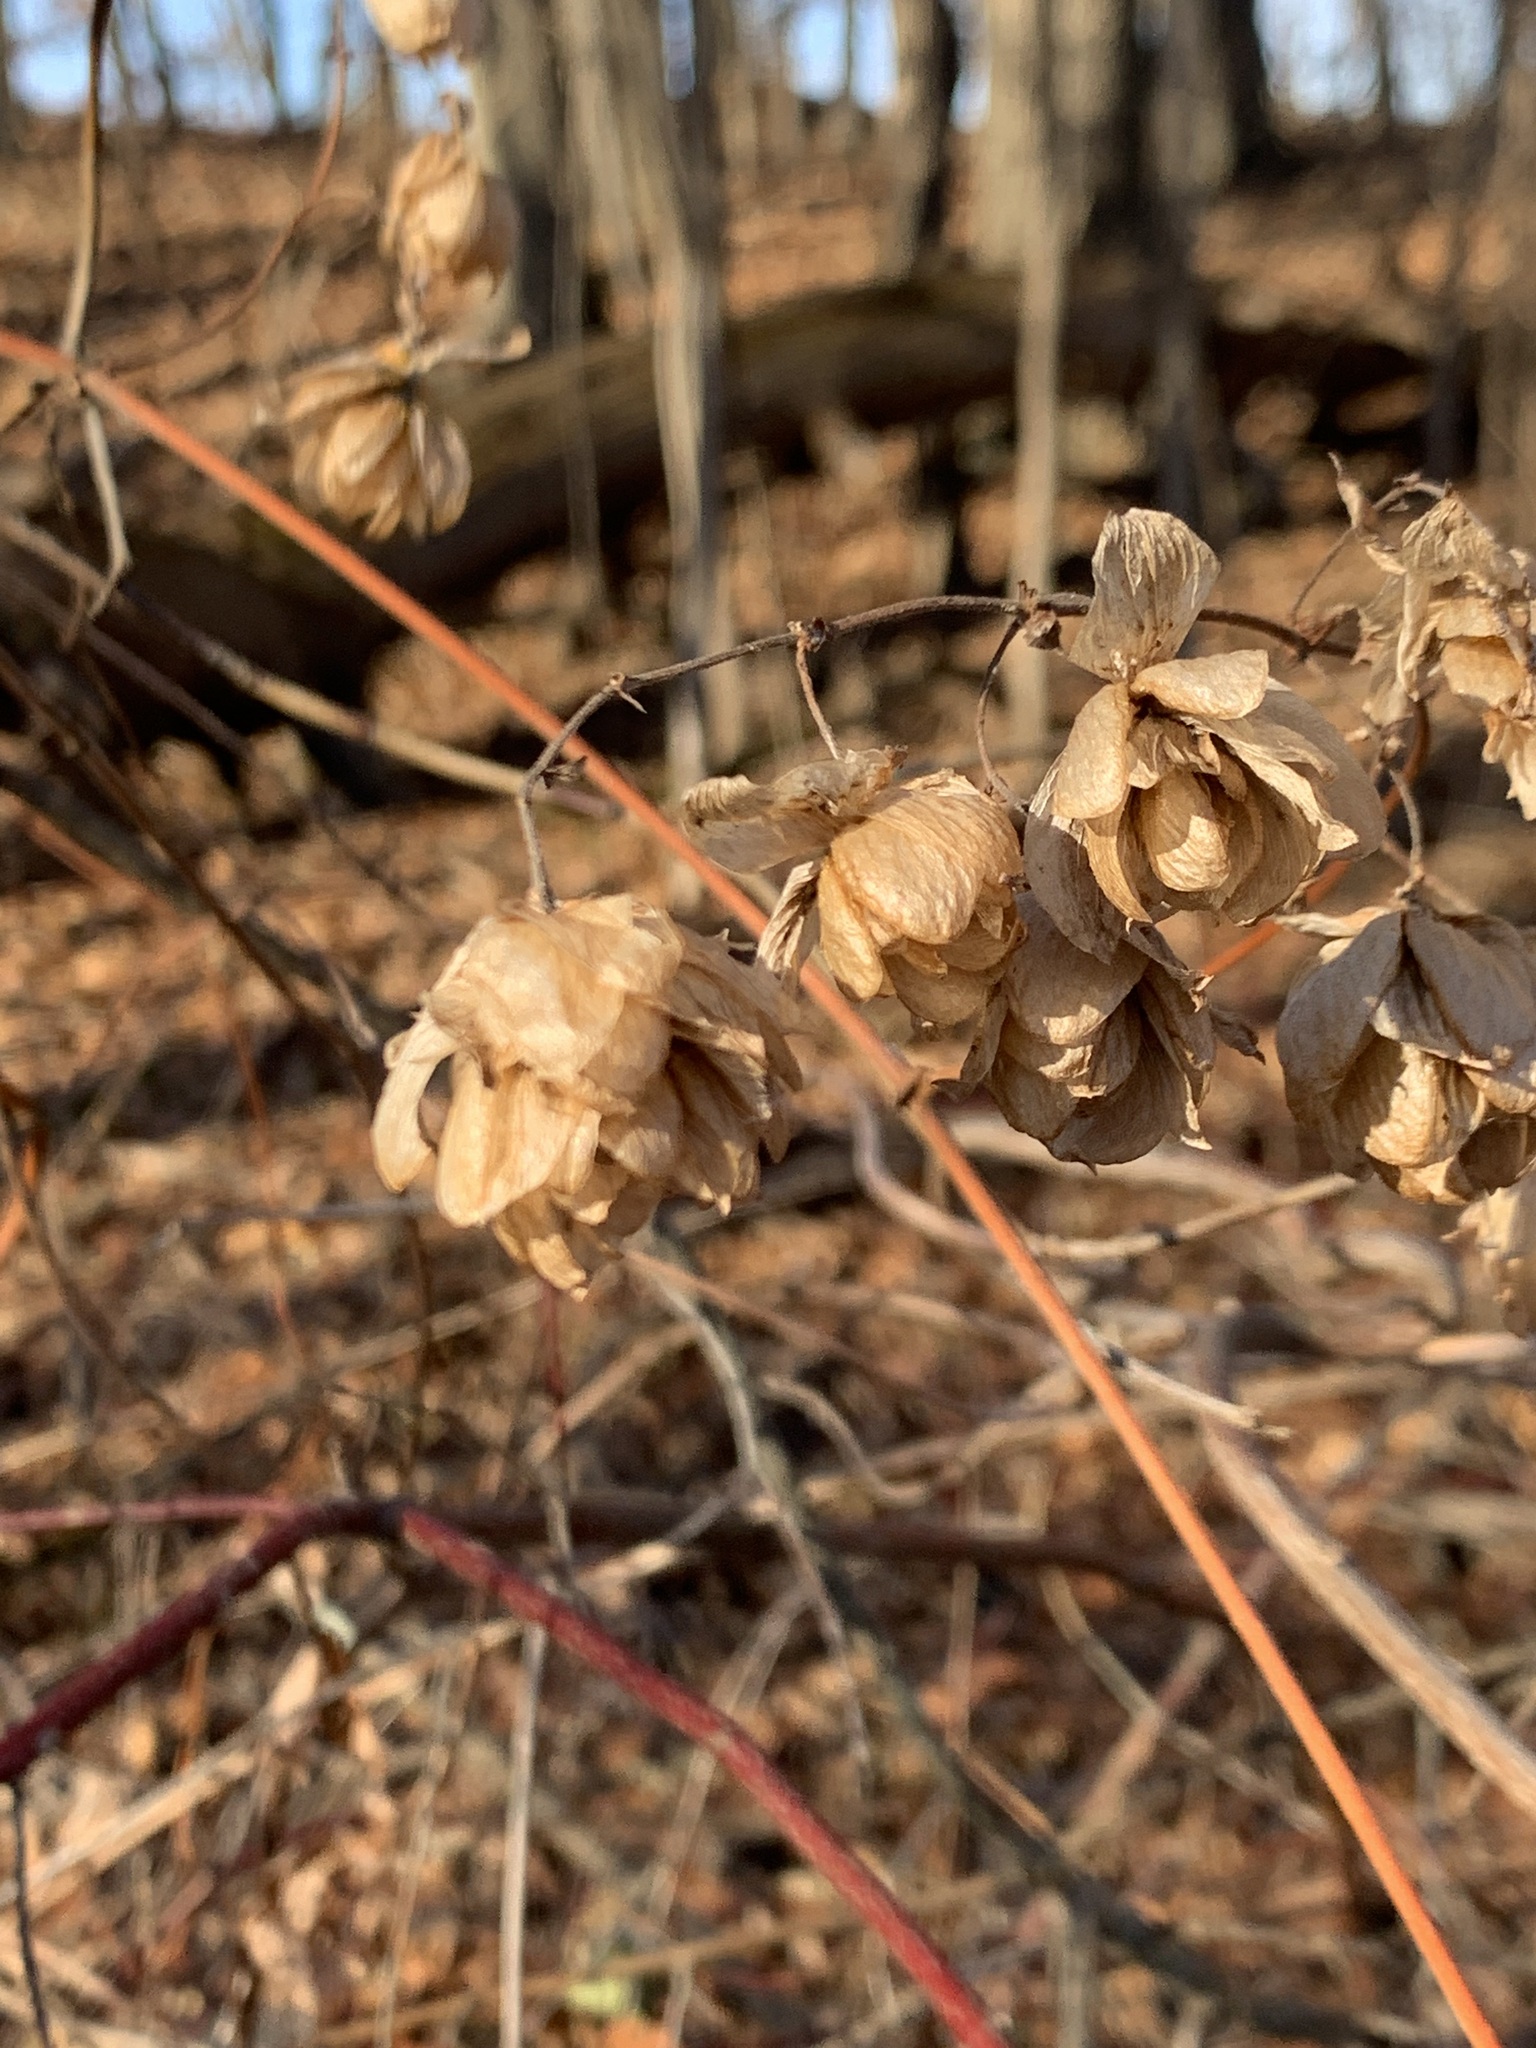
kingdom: Plantae
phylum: Tracheophyta
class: Magnoliopsida
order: Rosales
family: Cannabaceae
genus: Humulus
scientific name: Humulus lupulus
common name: Hop
